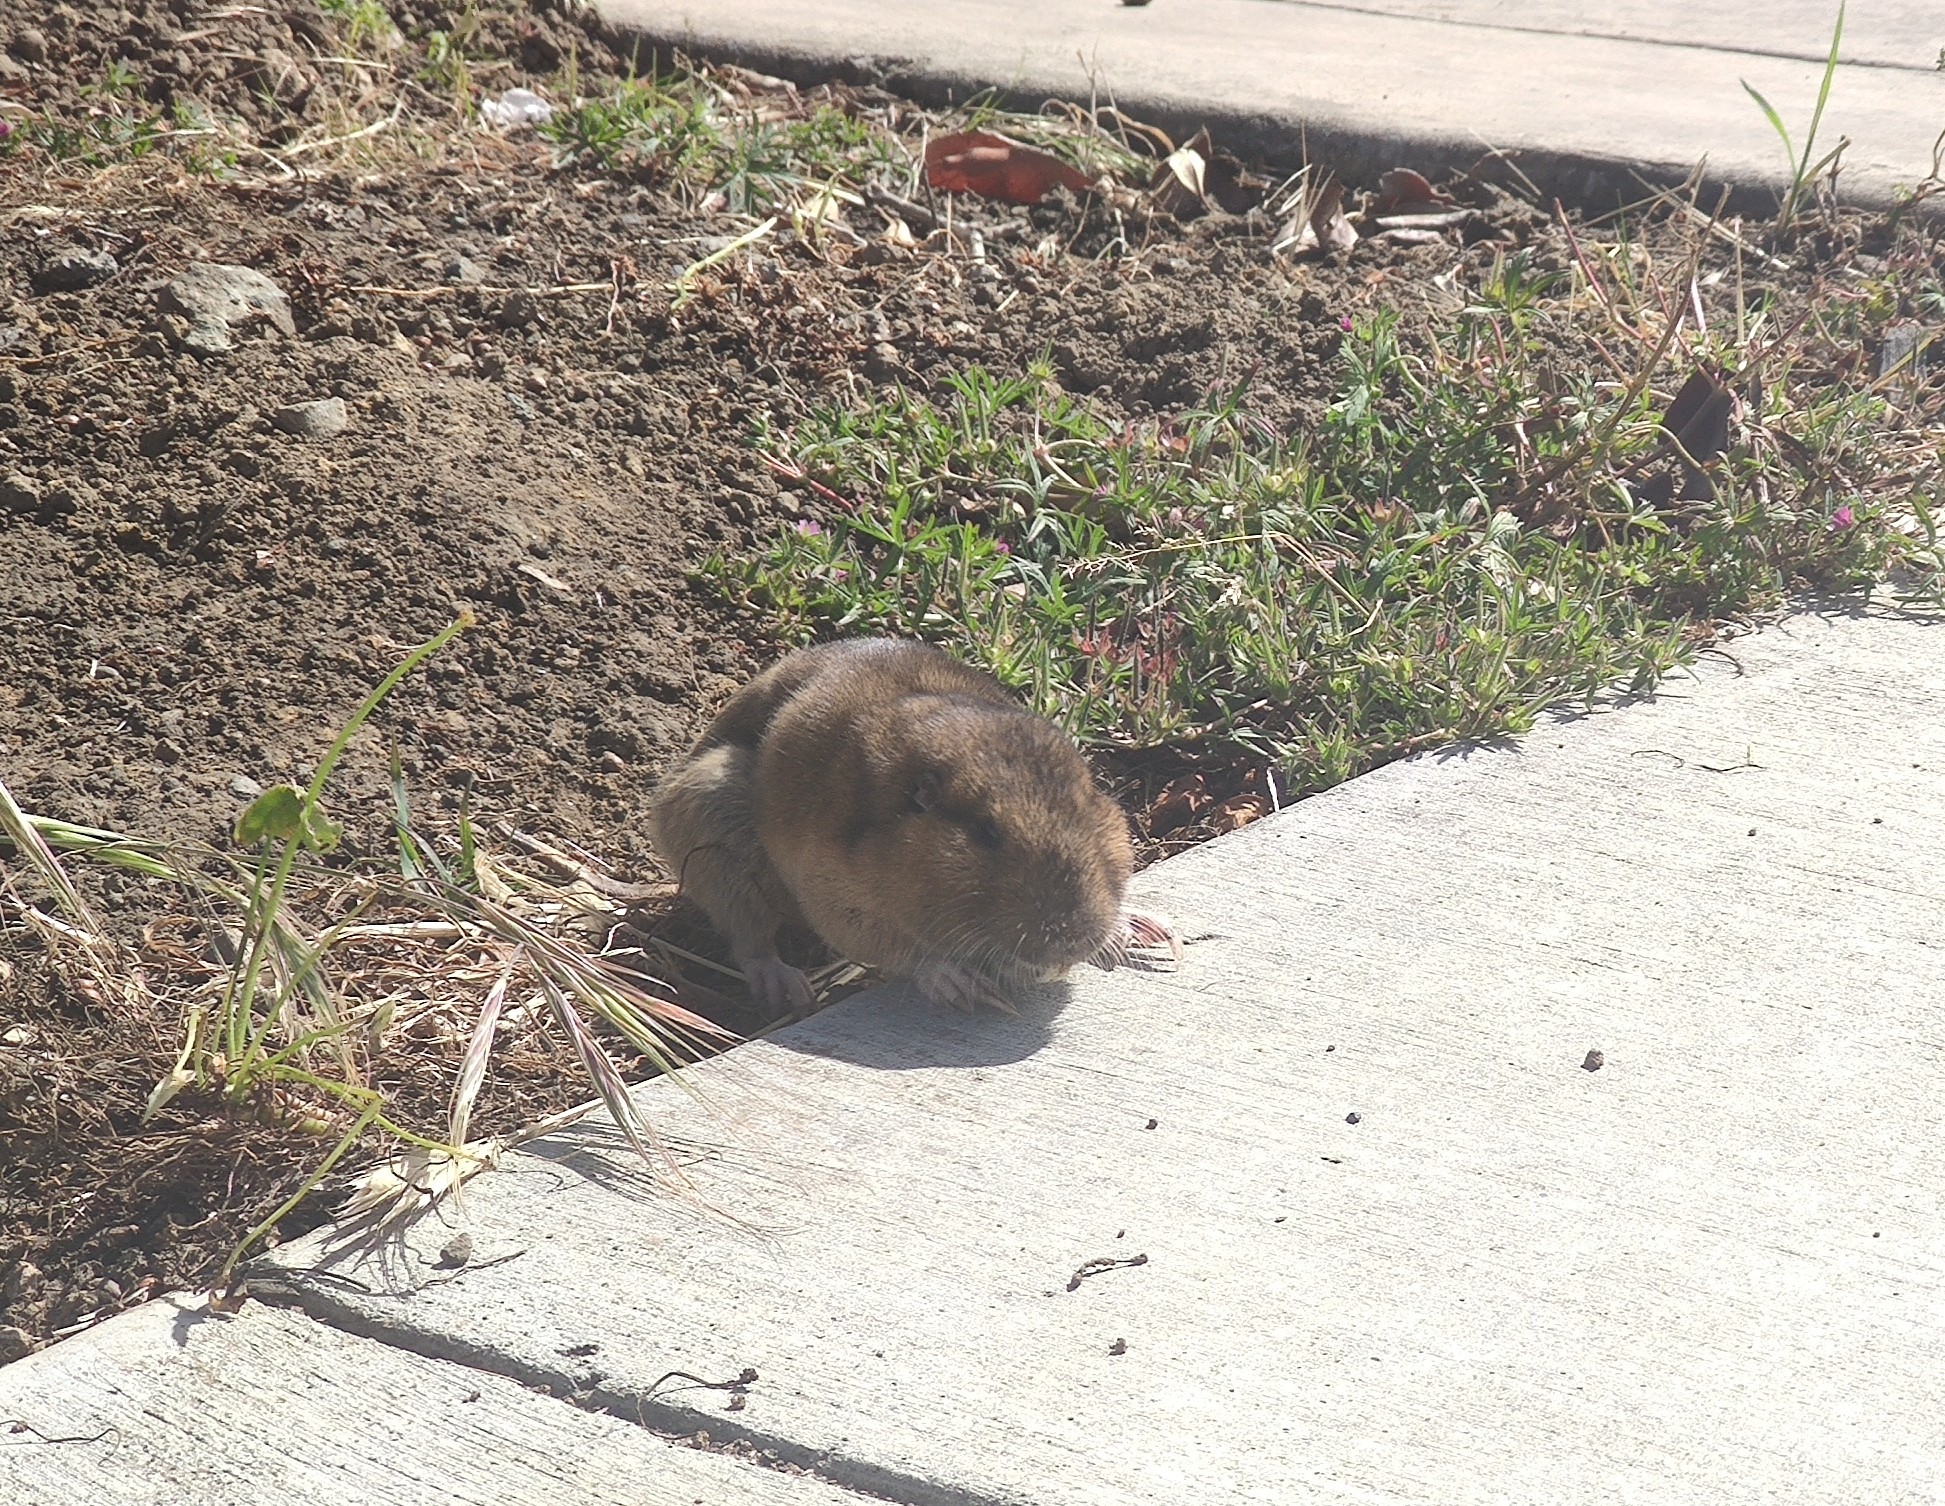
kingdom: Animalia
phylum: Chordata
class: Mammalia
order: Rodentia
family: Geomyidae
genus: Thomomys
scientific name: Thomomys bottae
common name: Botta's pocket gopher
